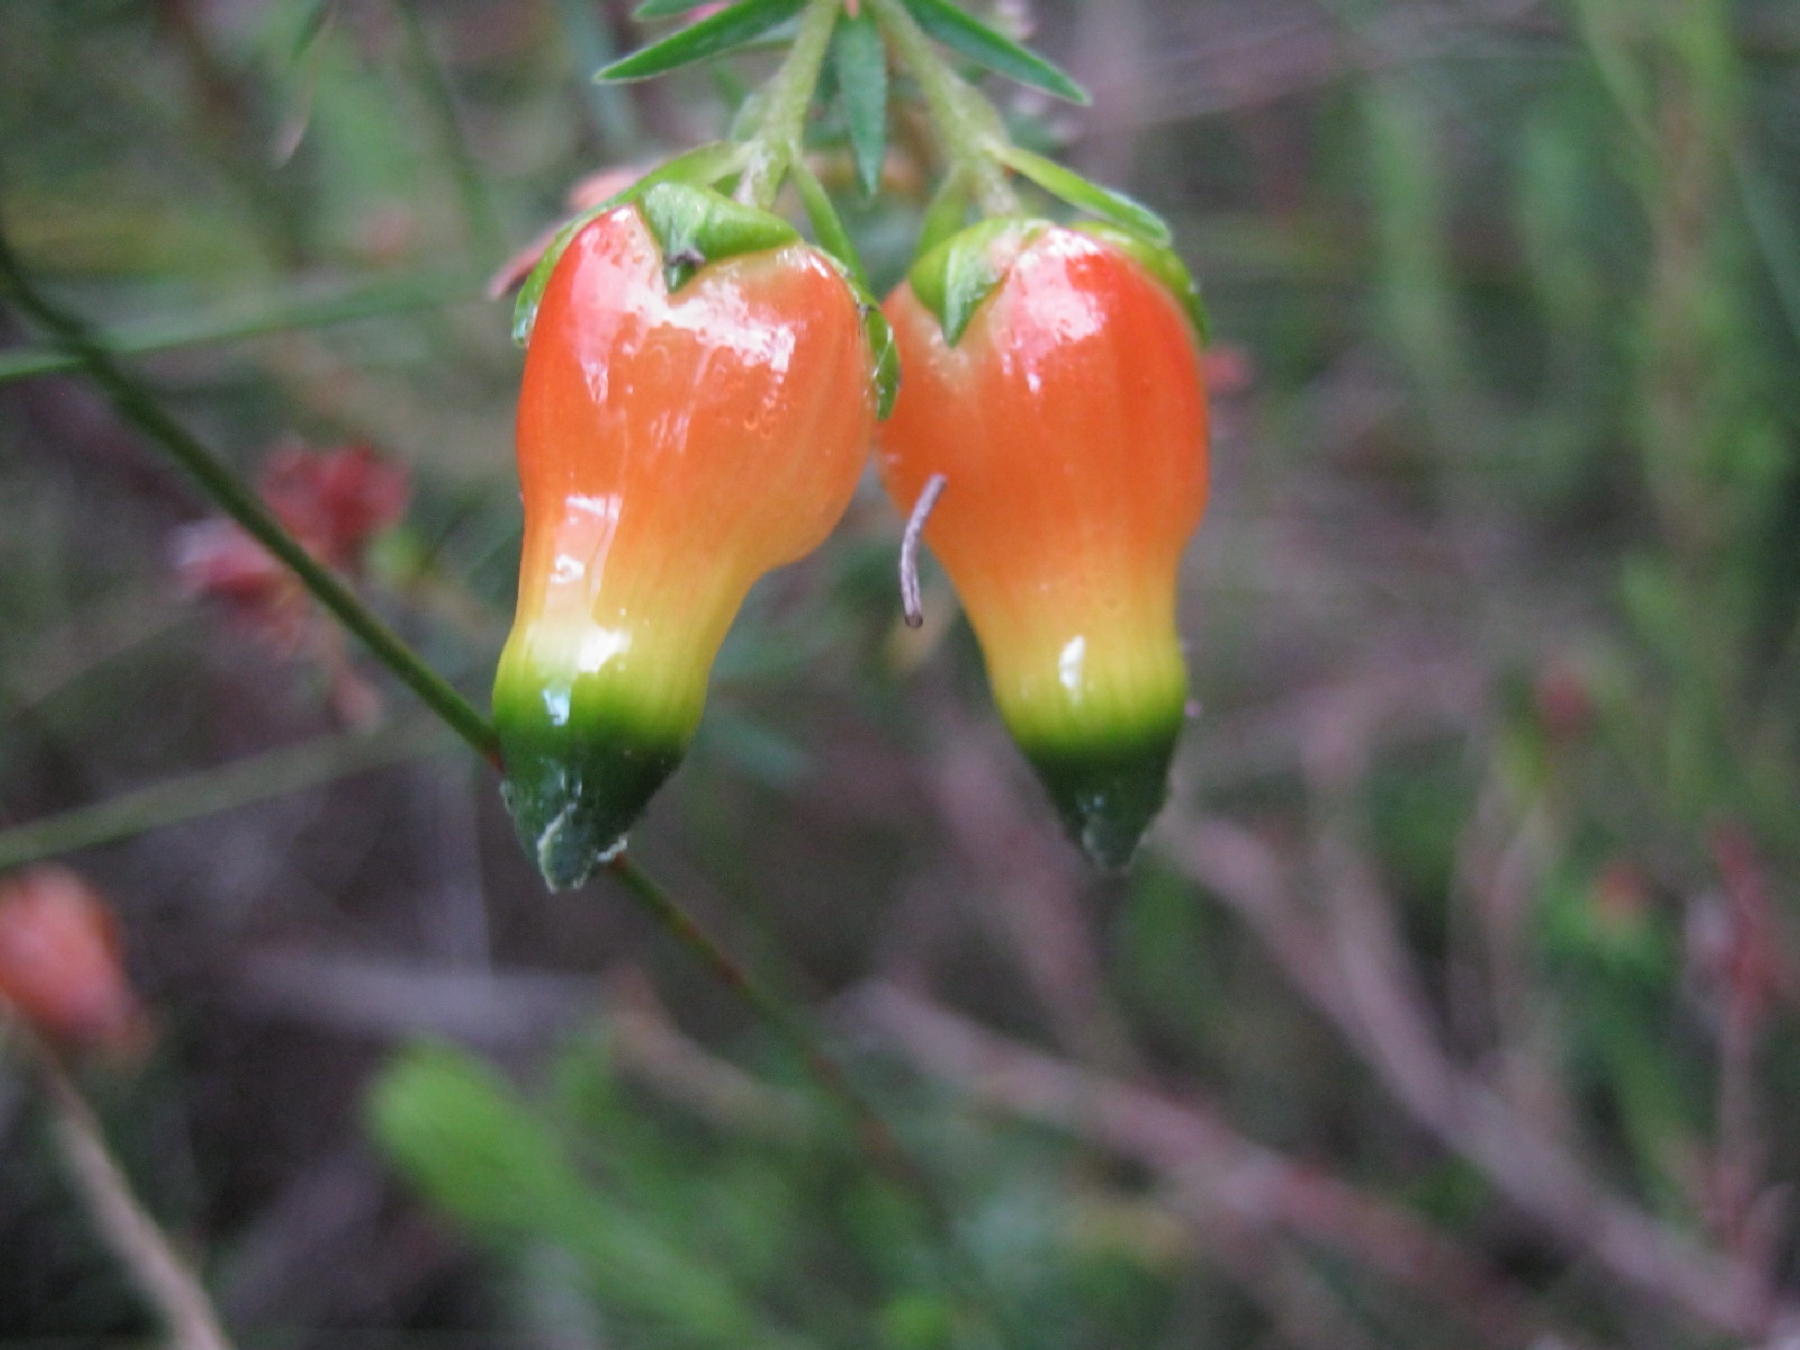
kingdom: Plantae
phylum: Tracheophyta
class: Magnoliopsida
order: Ericales
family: Ericaceae
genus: Erica
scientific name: Erica blenna
